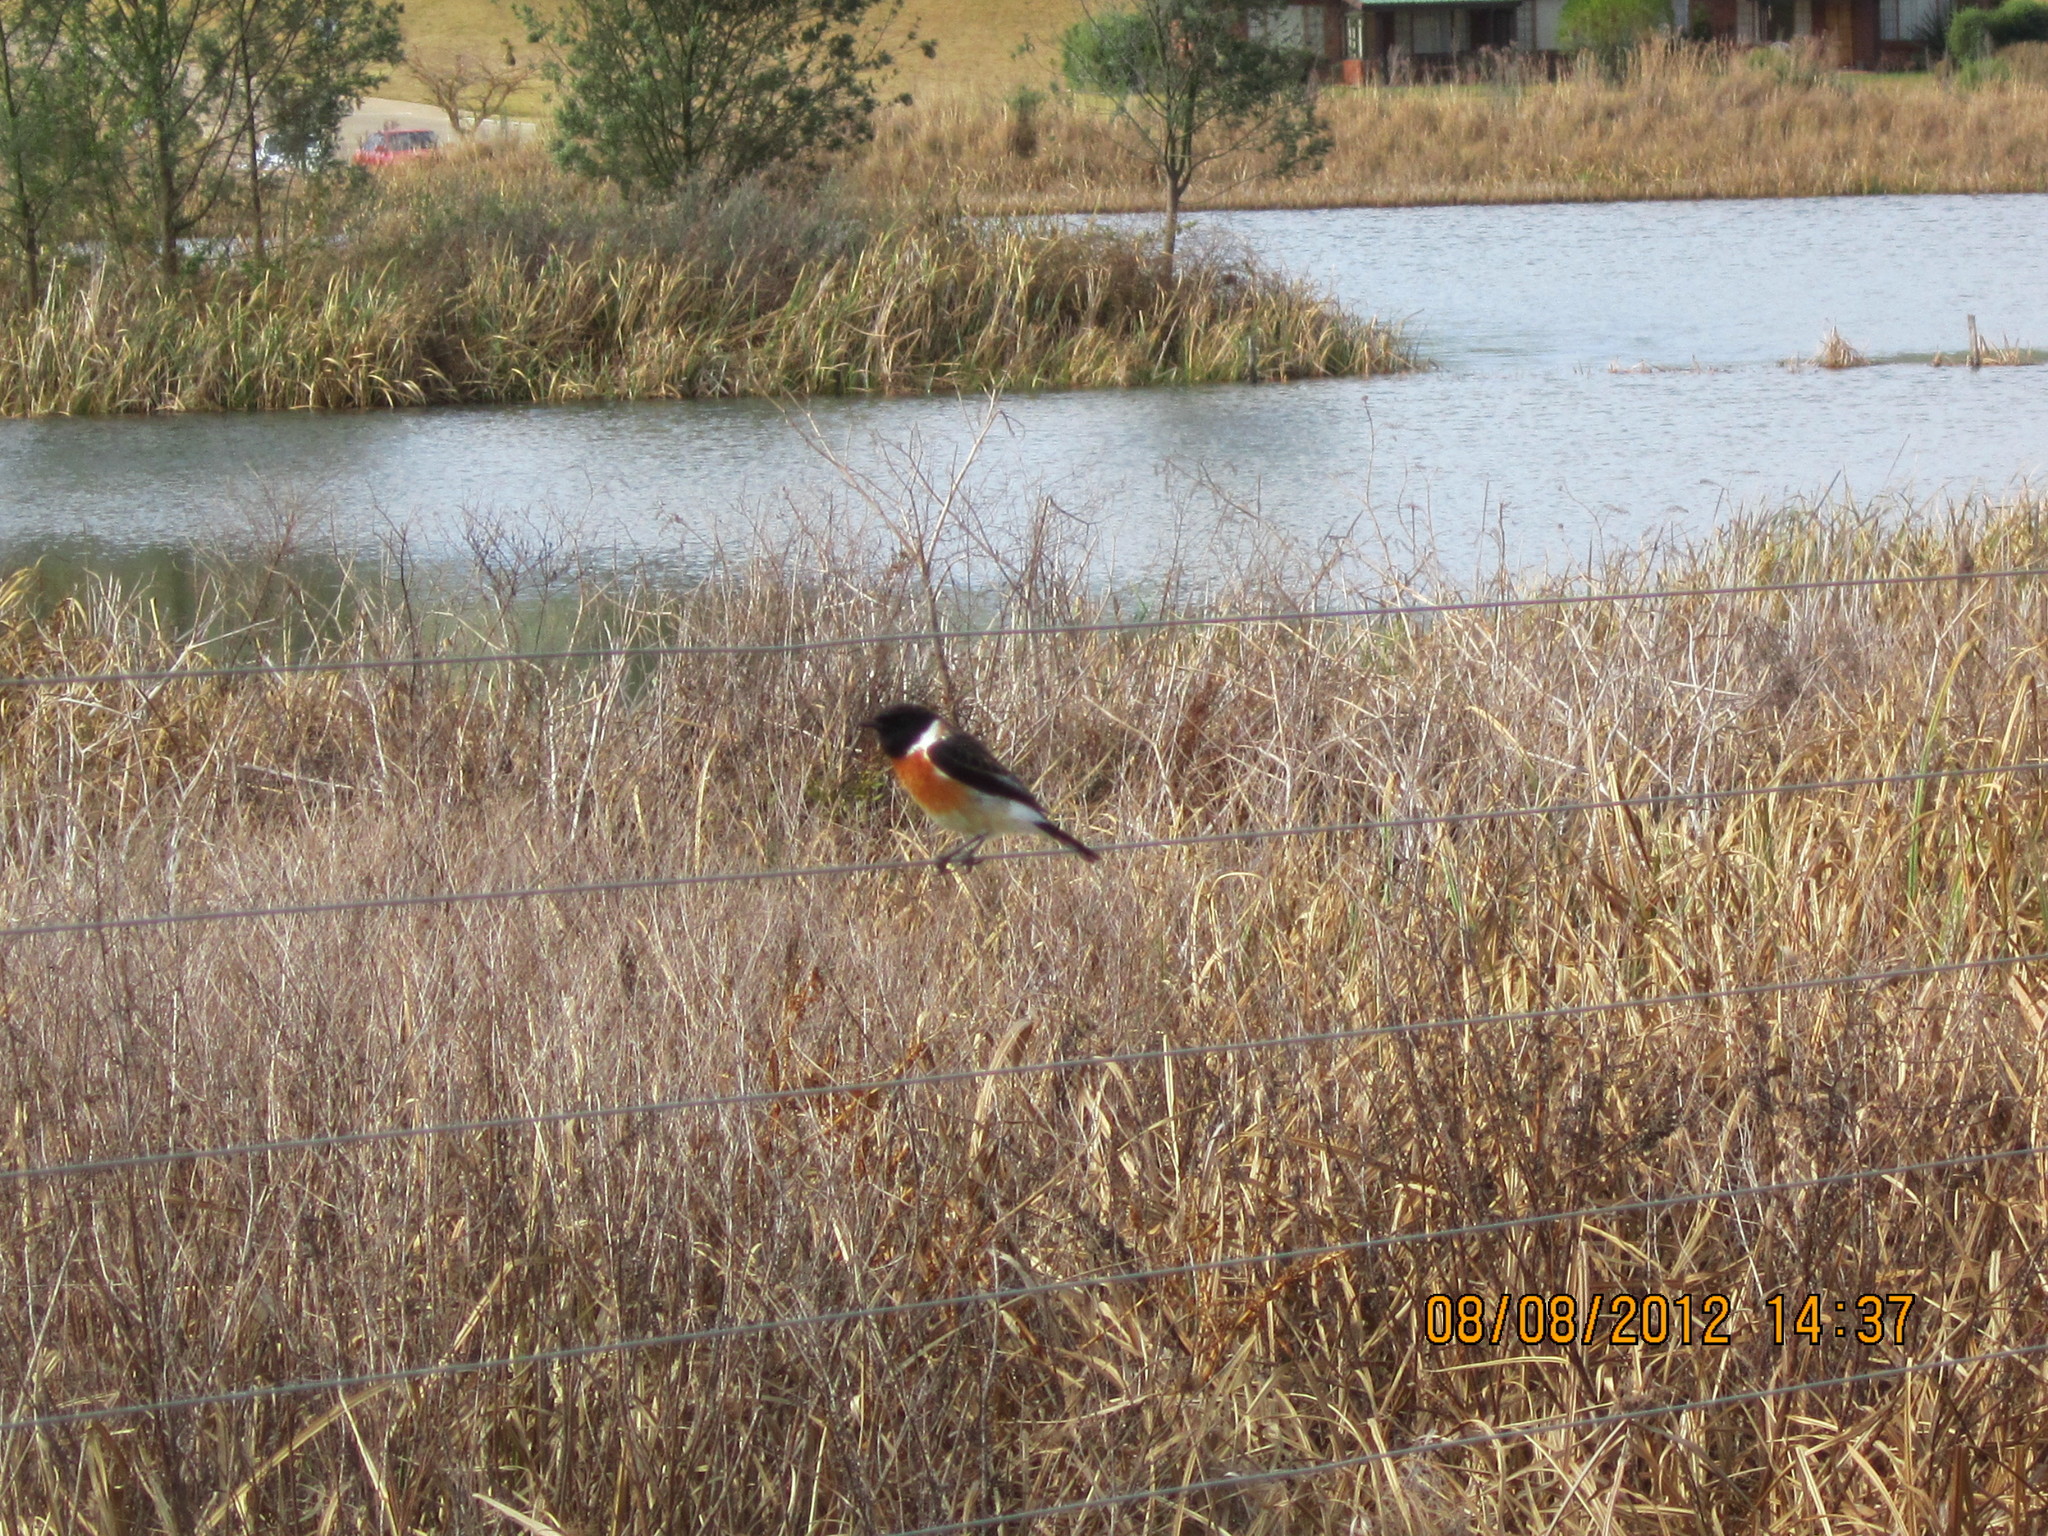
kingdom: Animalia
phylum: Chordata
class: Aves
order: Passeriformes
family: Muscicapidae
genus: Saxicola
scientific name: Saxicola torquatus
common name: African stonechat
